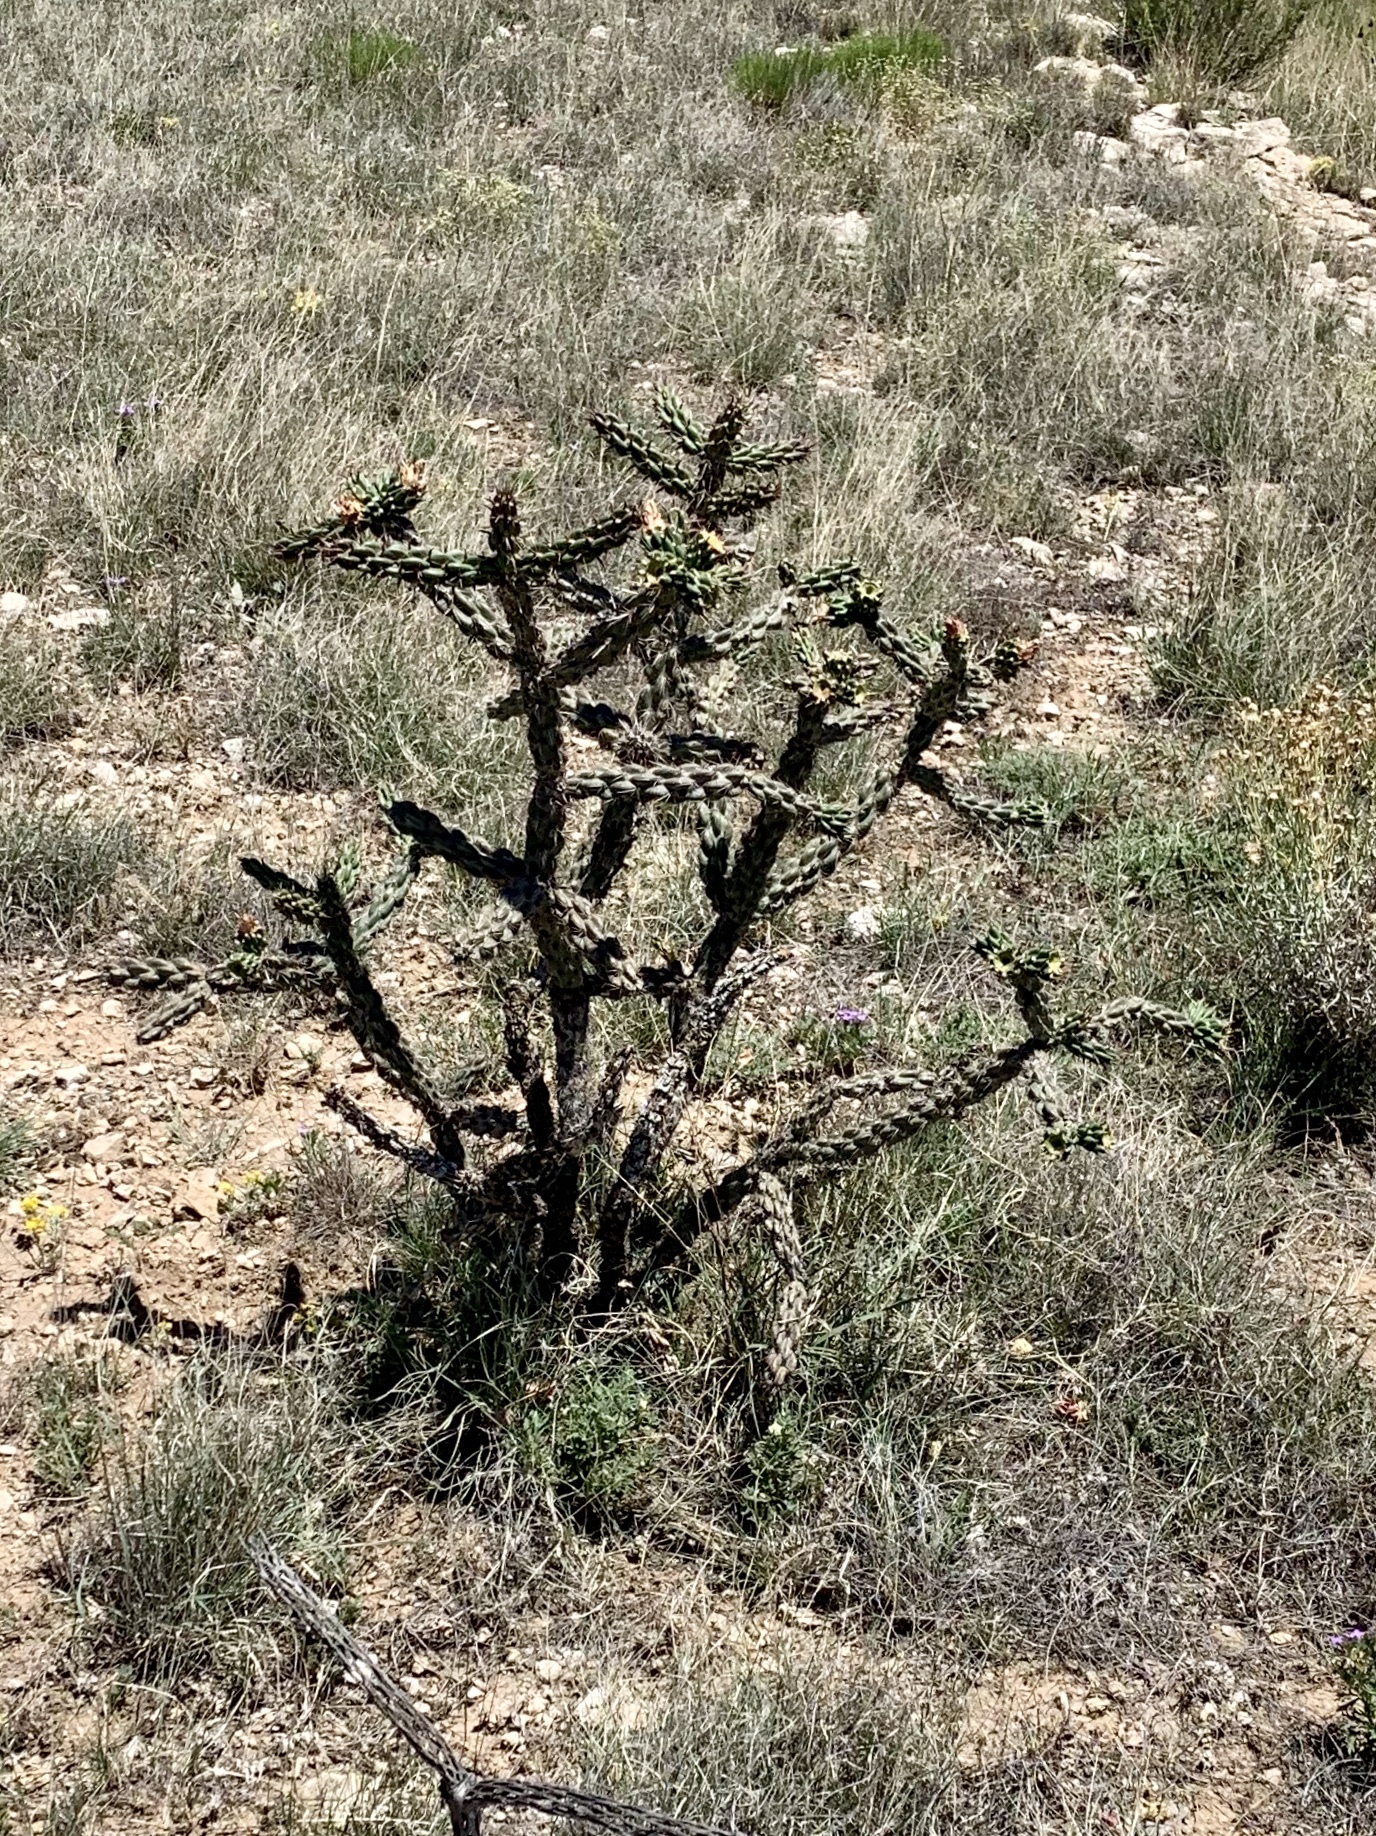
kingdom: Plantae
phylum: Tracheophyta
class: Magnoliopsida
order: Caryophyllales
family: Cactaceae
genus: Cylindropuntia
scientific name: Cylindropuntia imbricata
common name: Candelabrum cactus
